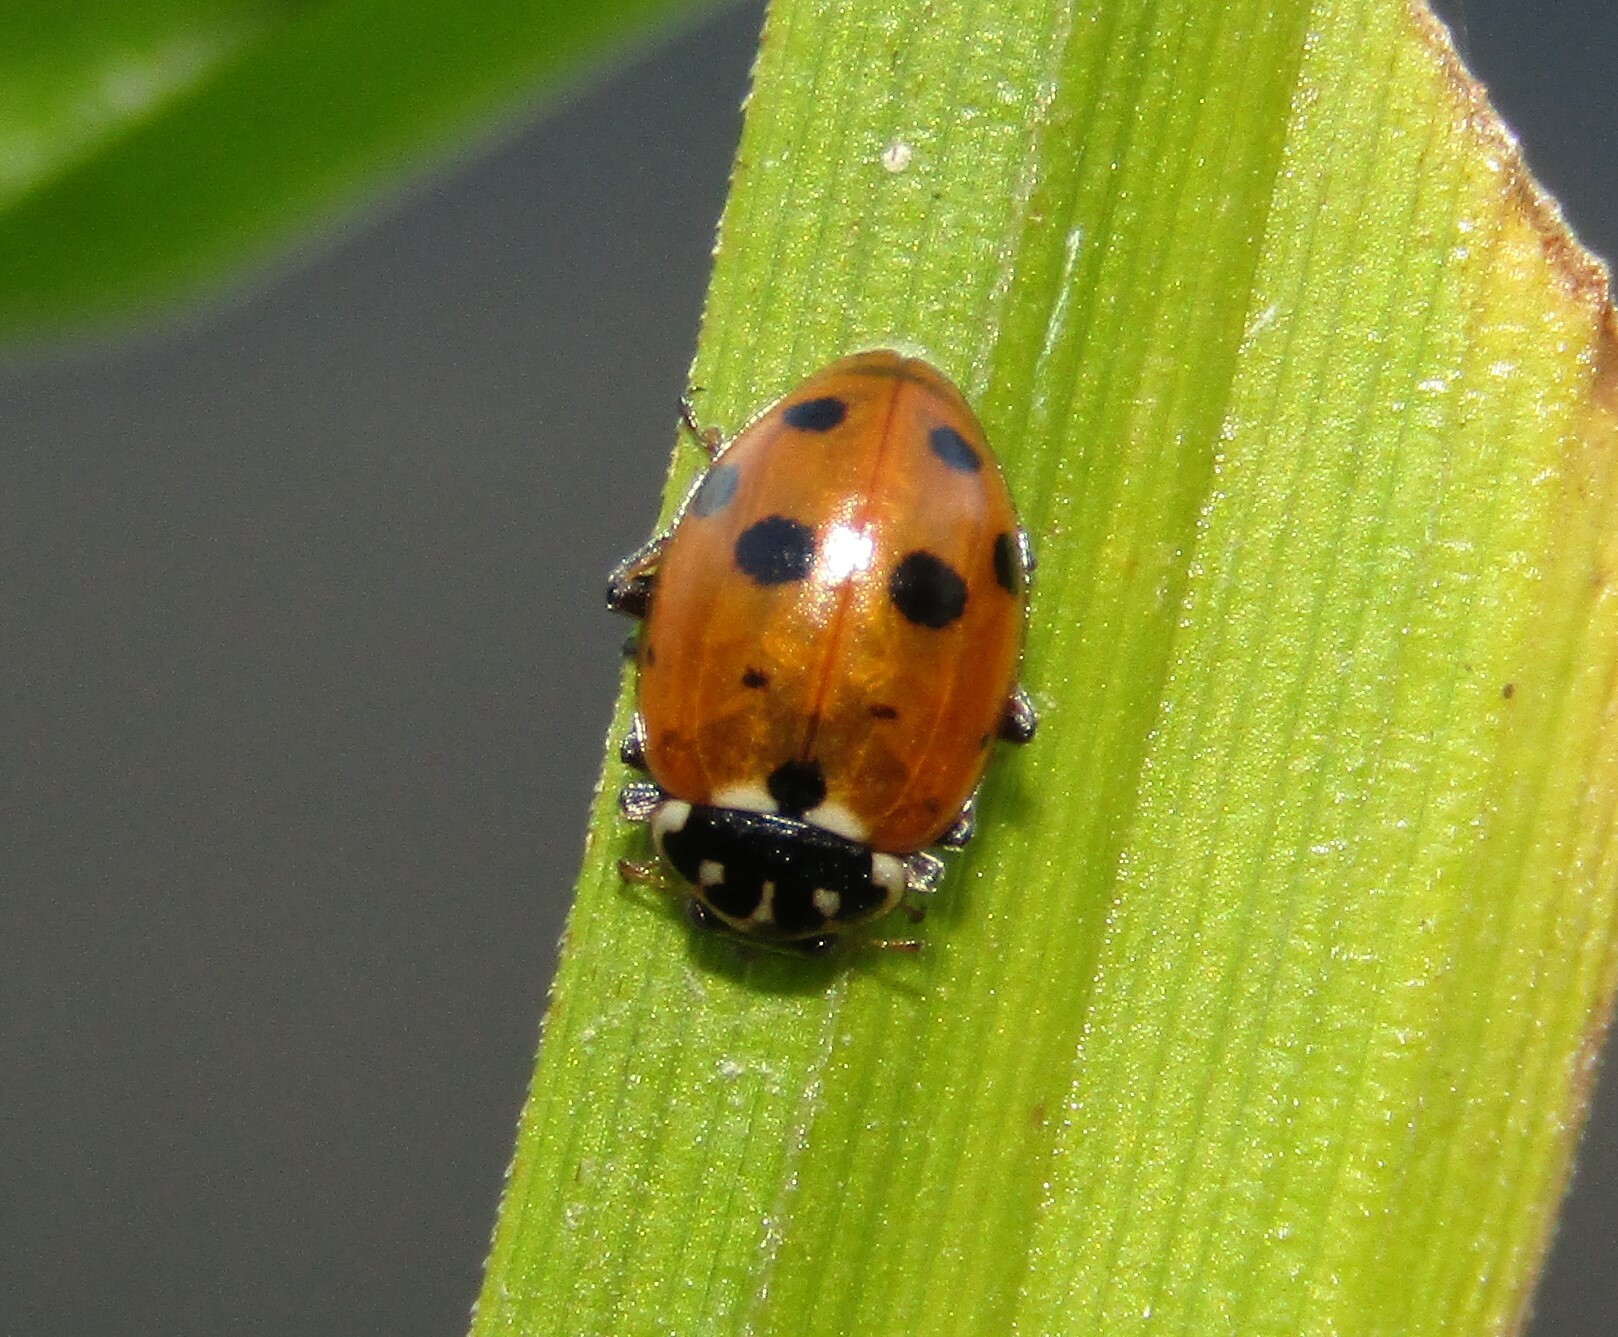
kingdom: Animalia
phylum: Arthropoda
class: Insecta
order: Coleoptera
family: Coccinellidae
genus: Hippodamia
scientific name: Hippodamia variegata
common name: Ladybird beetle
